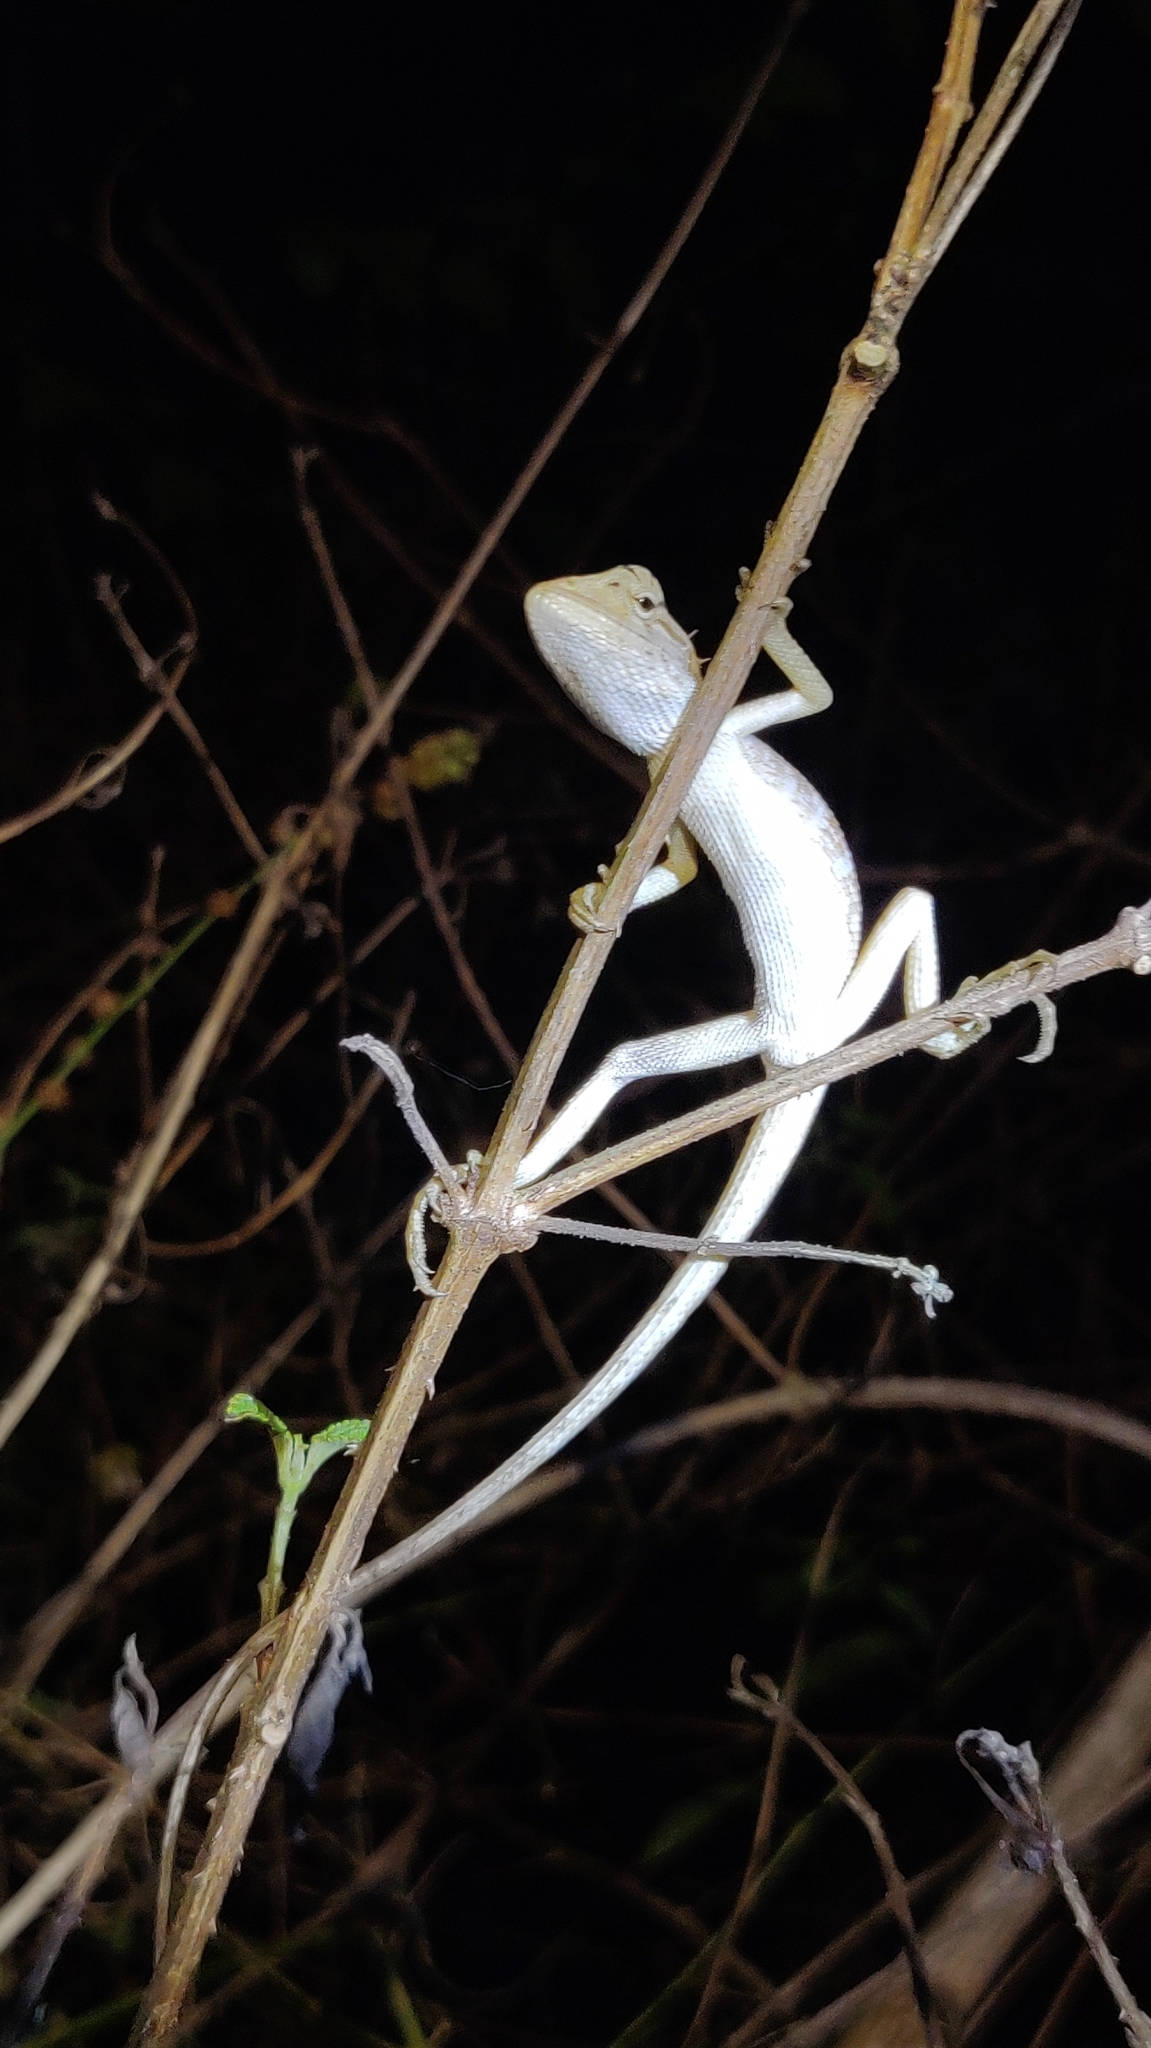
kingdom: Animalia
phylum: Chordata
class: Squamata
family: Agamidae
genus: Calotes
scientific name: Calotes versicolor
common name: Oriental garden lizard
